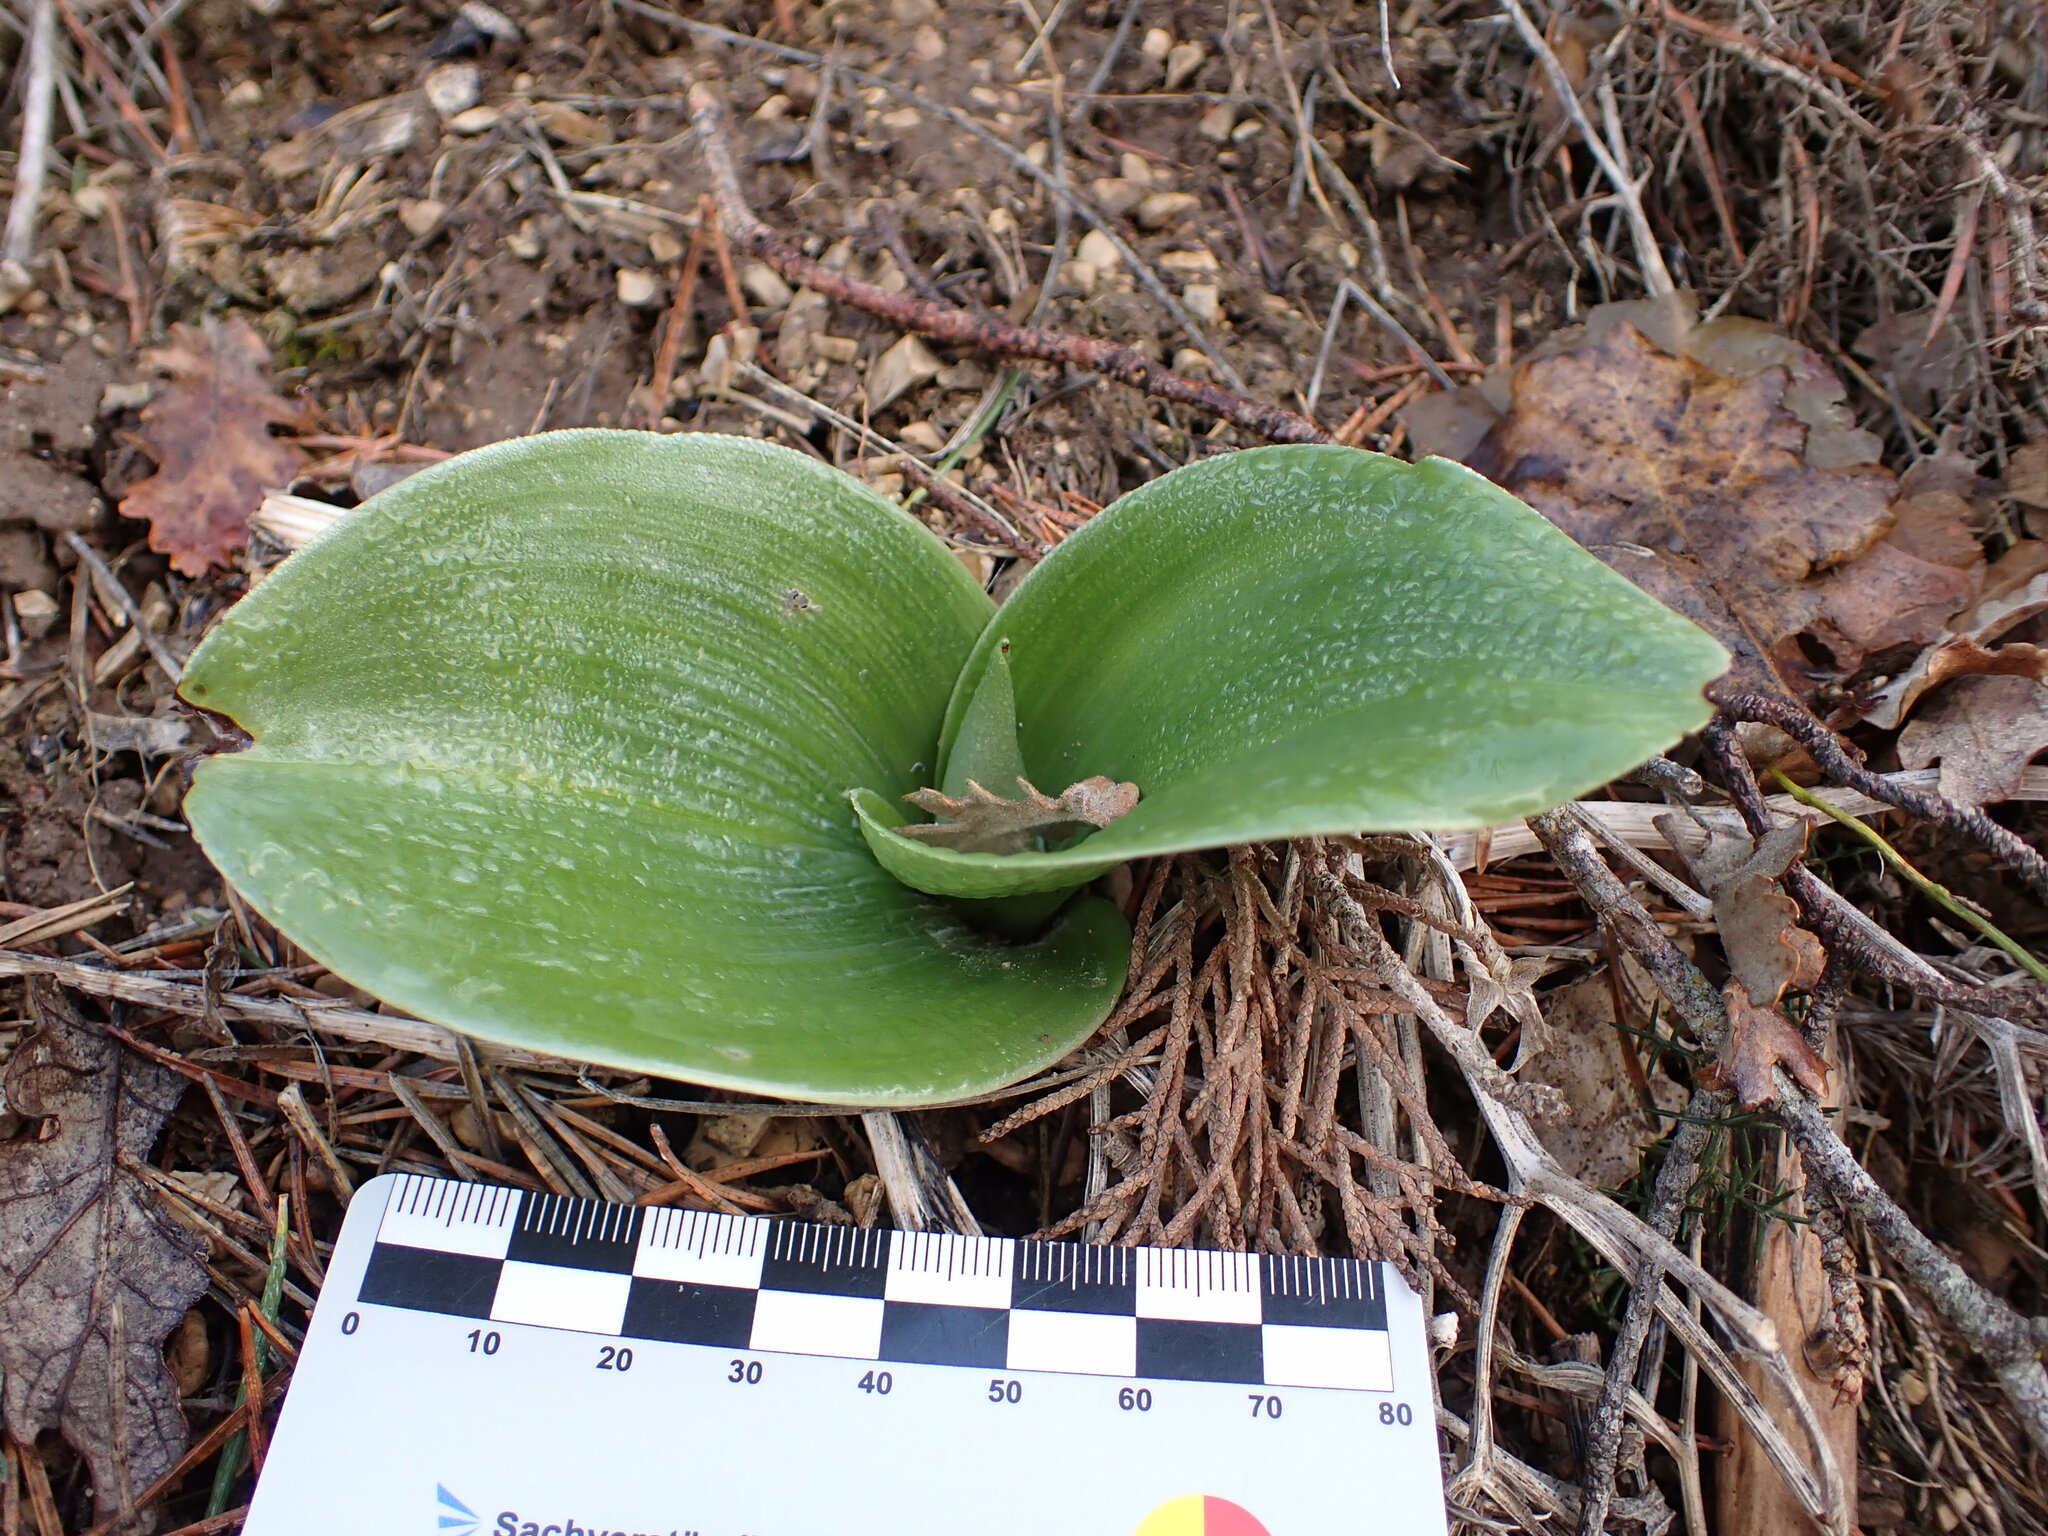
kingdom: Plantae
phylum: Tracheophyta
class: Liliopsida
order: Asparagales
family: Orchidaceae
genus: Himantoglossum
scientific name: Himantoglossum robertianum
